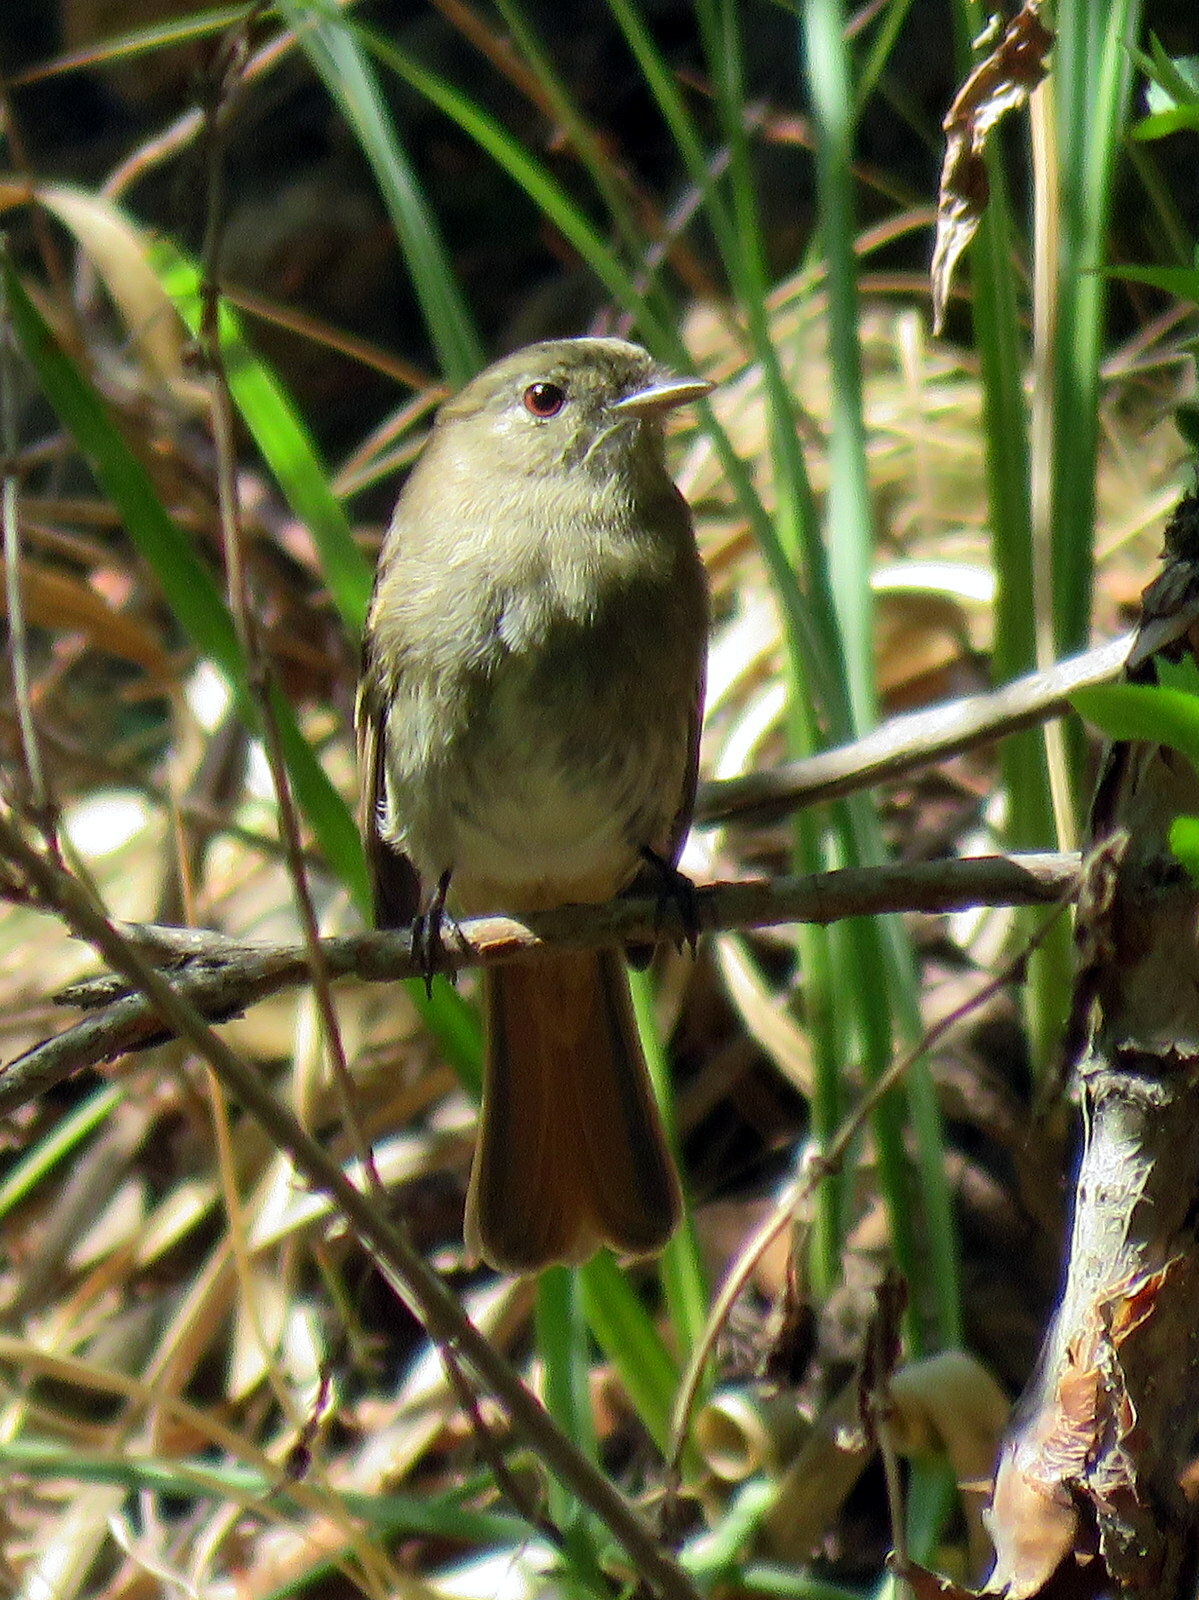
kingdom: Animalia
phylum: Chordata
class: Aves
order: Passeriformes
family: Tyrannidae
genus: Knipolegus
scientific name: Knipolegus cabanisi
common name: Plumbeous tyrant
